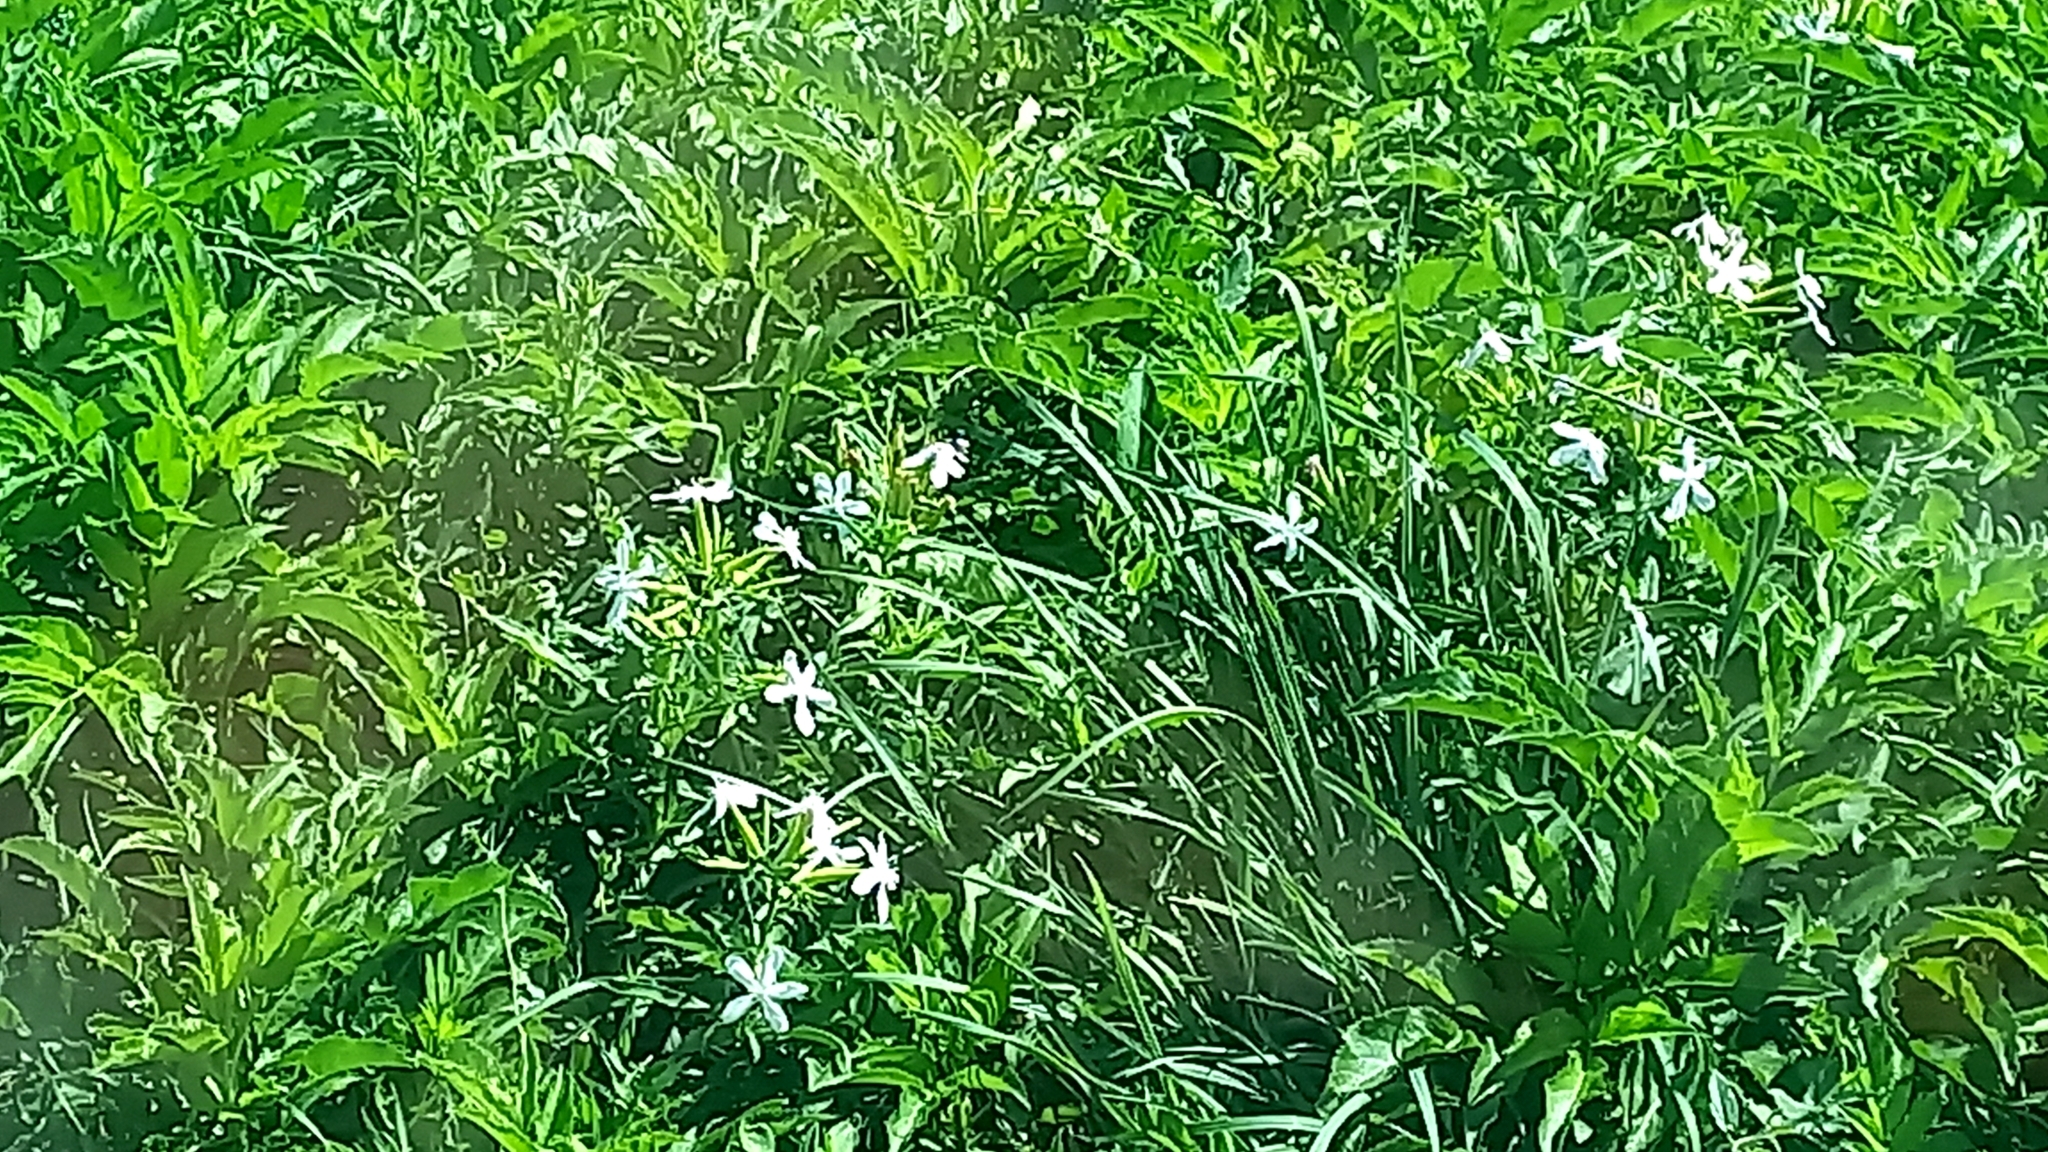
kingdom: Plantae
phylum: Tracheophyta
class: Magnoliopsida
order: Caryophyllales
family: Caryophyllaceae
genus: Saponaria
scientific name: Saponaria officinalis
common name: Soapwort
